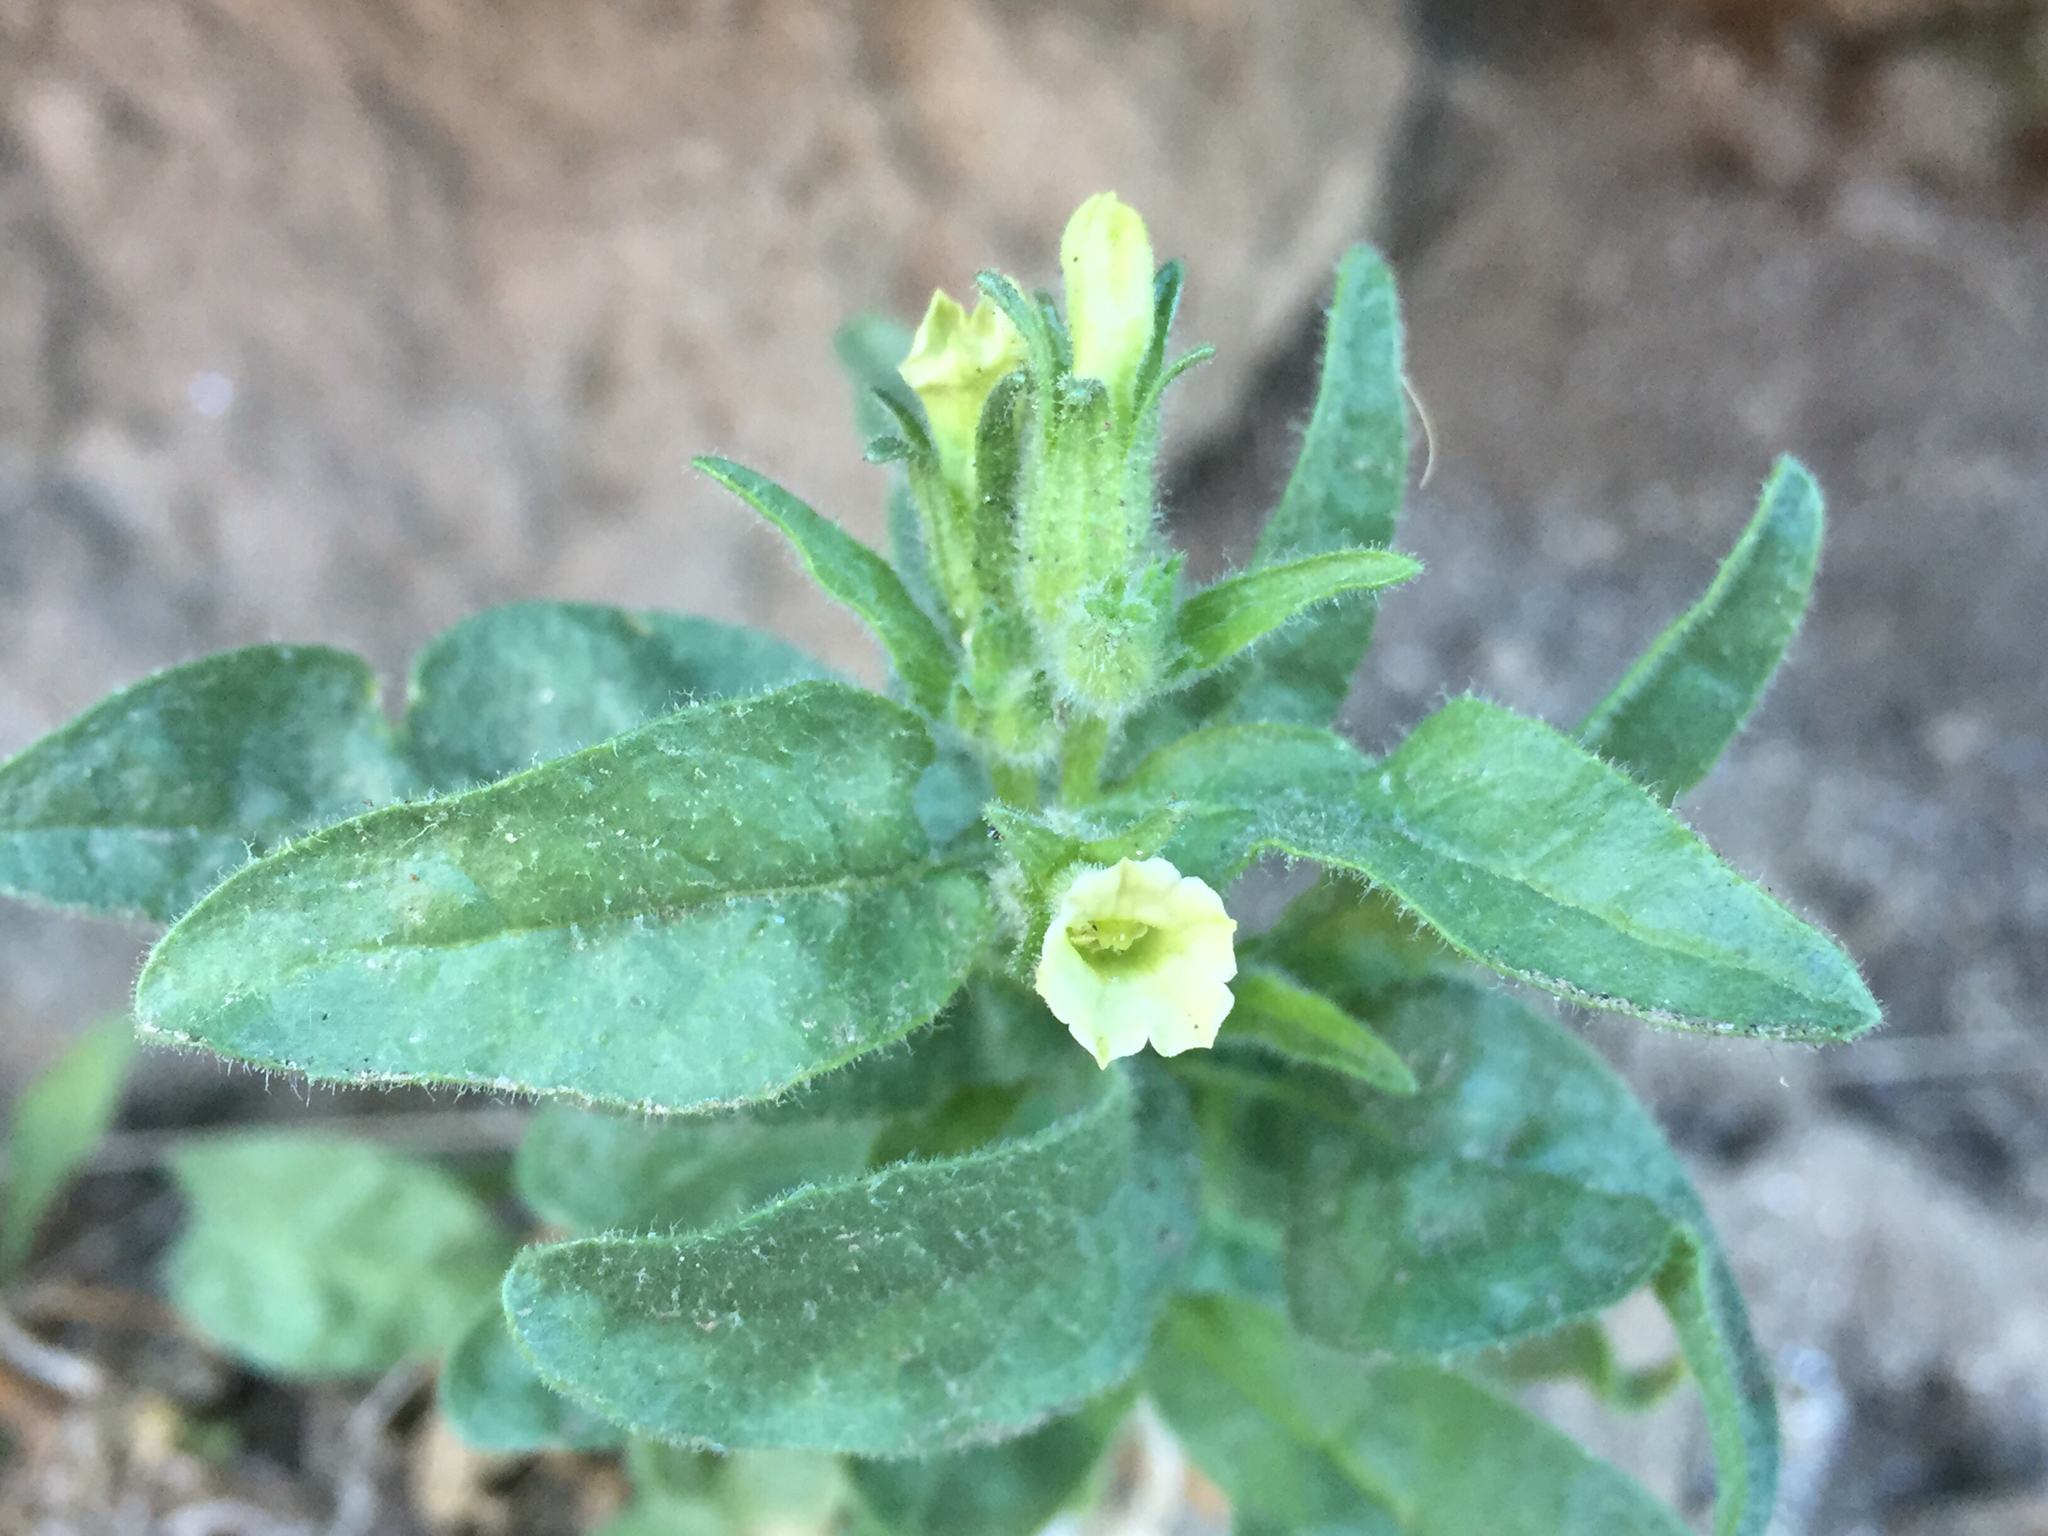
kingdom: Plantae
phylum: Tracheophyta
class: Magnoliopsida
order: Solanales
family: Solanaceae
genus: Nicotiana
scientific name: Nicotiana obtusifolia
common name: Desert tobacco
